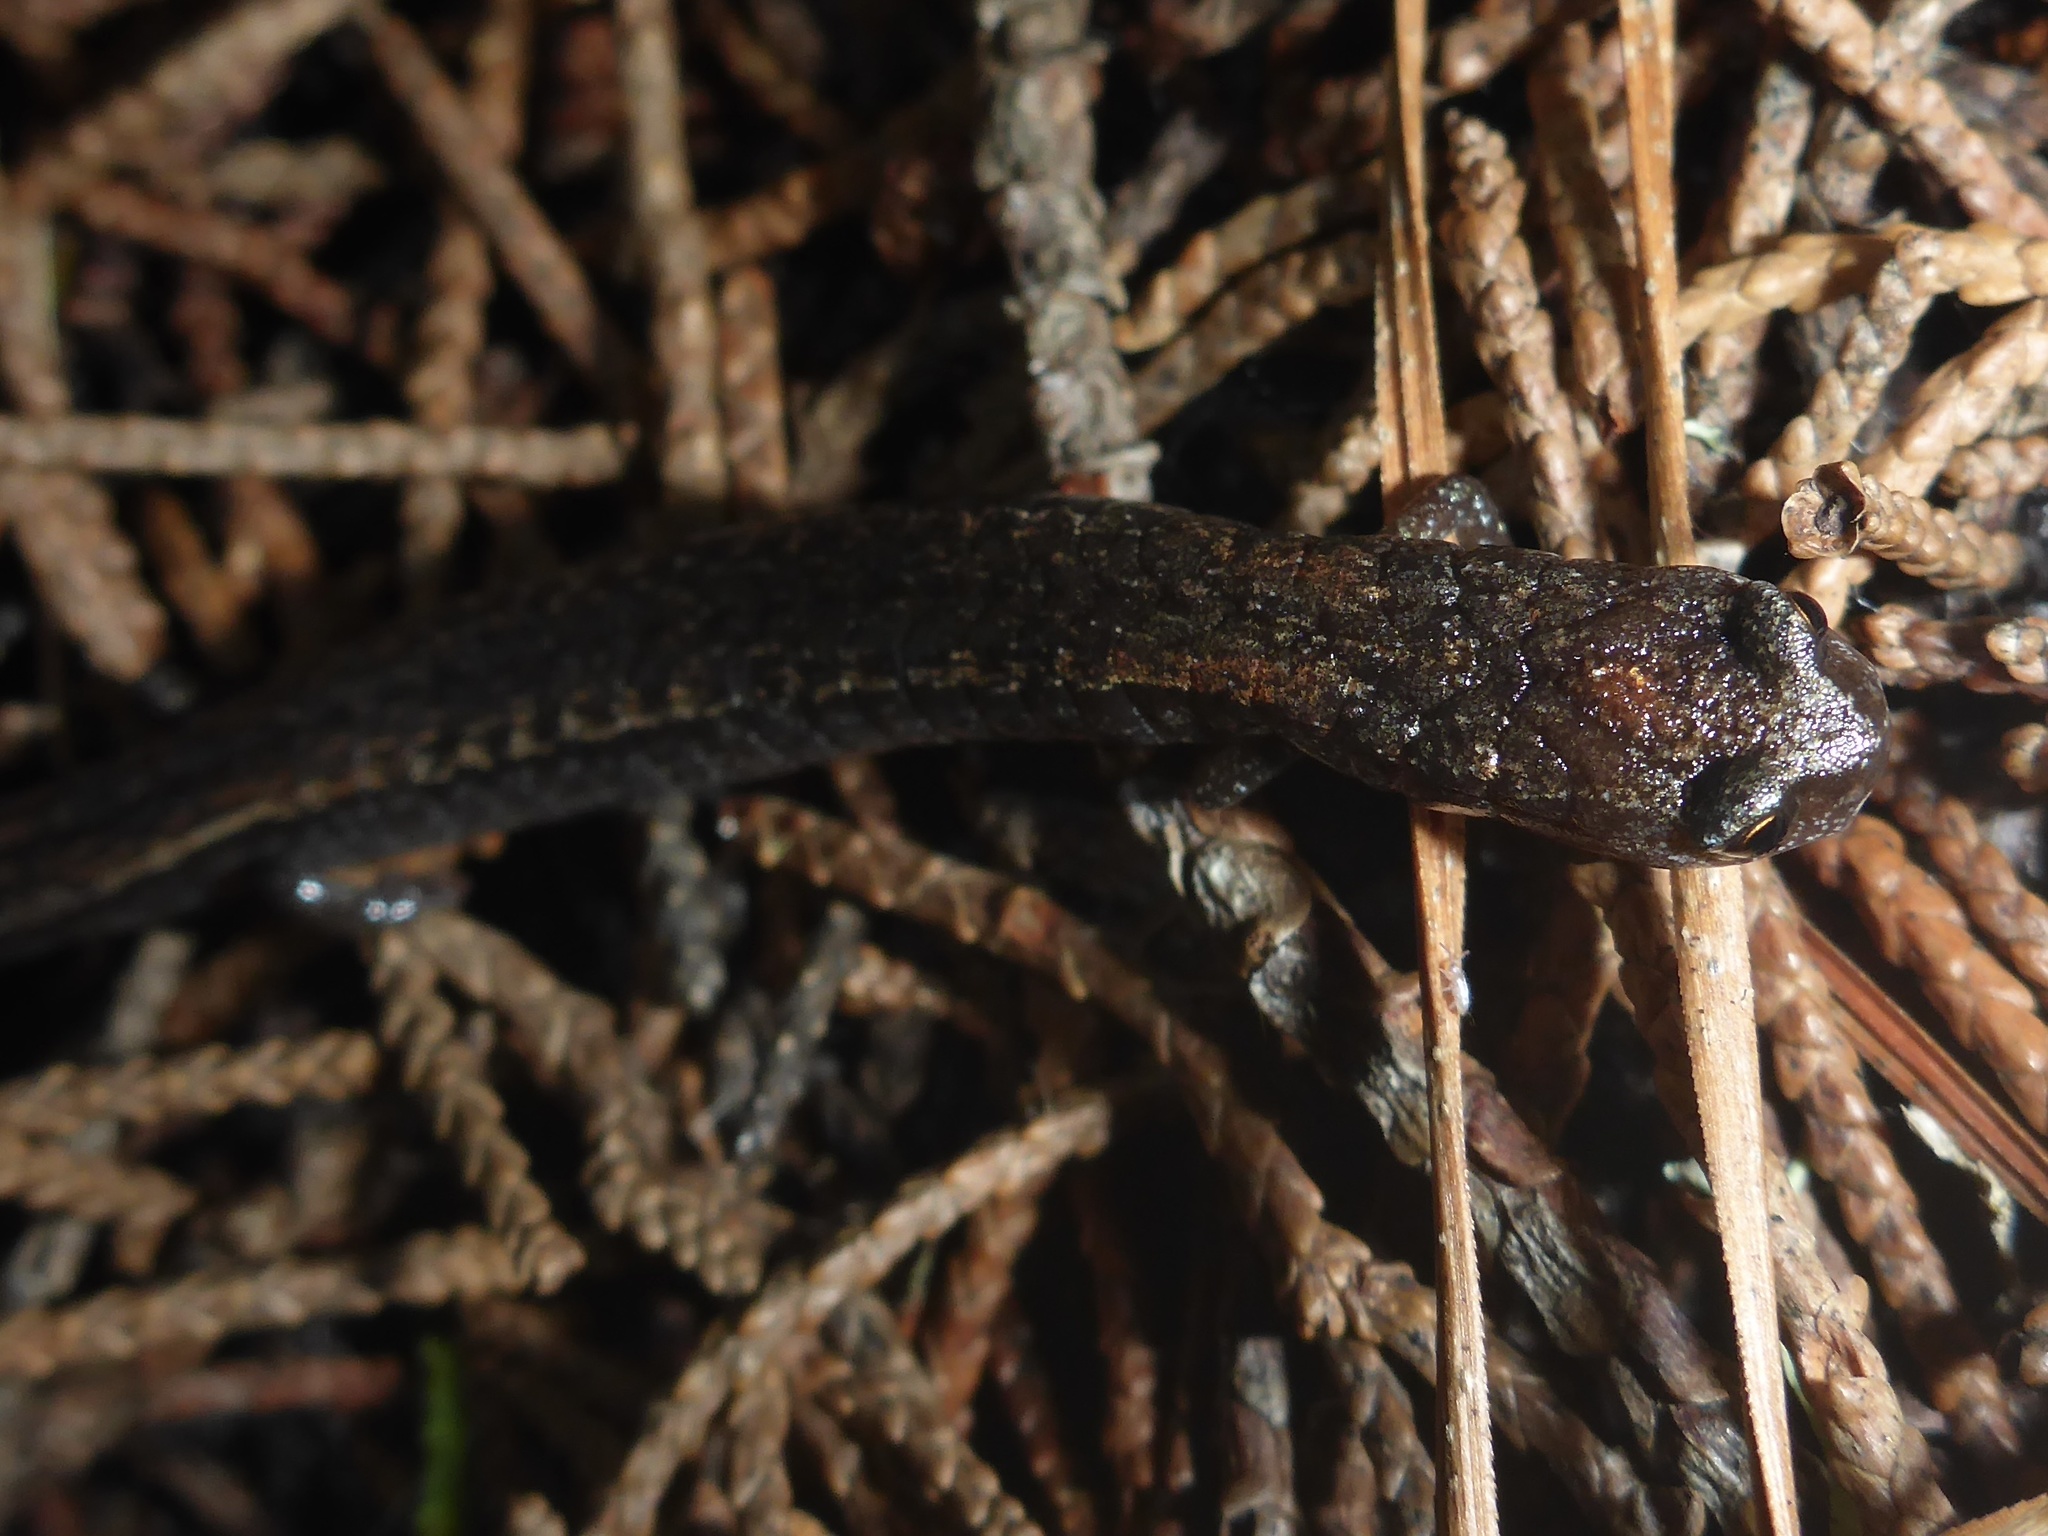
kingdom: Animalia
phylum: Chordata
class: Amphibia
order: Caudata
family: Plethodontidae
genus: Batrachoseps
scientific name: Batrachoseps attenuatus
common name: California slender salamander
